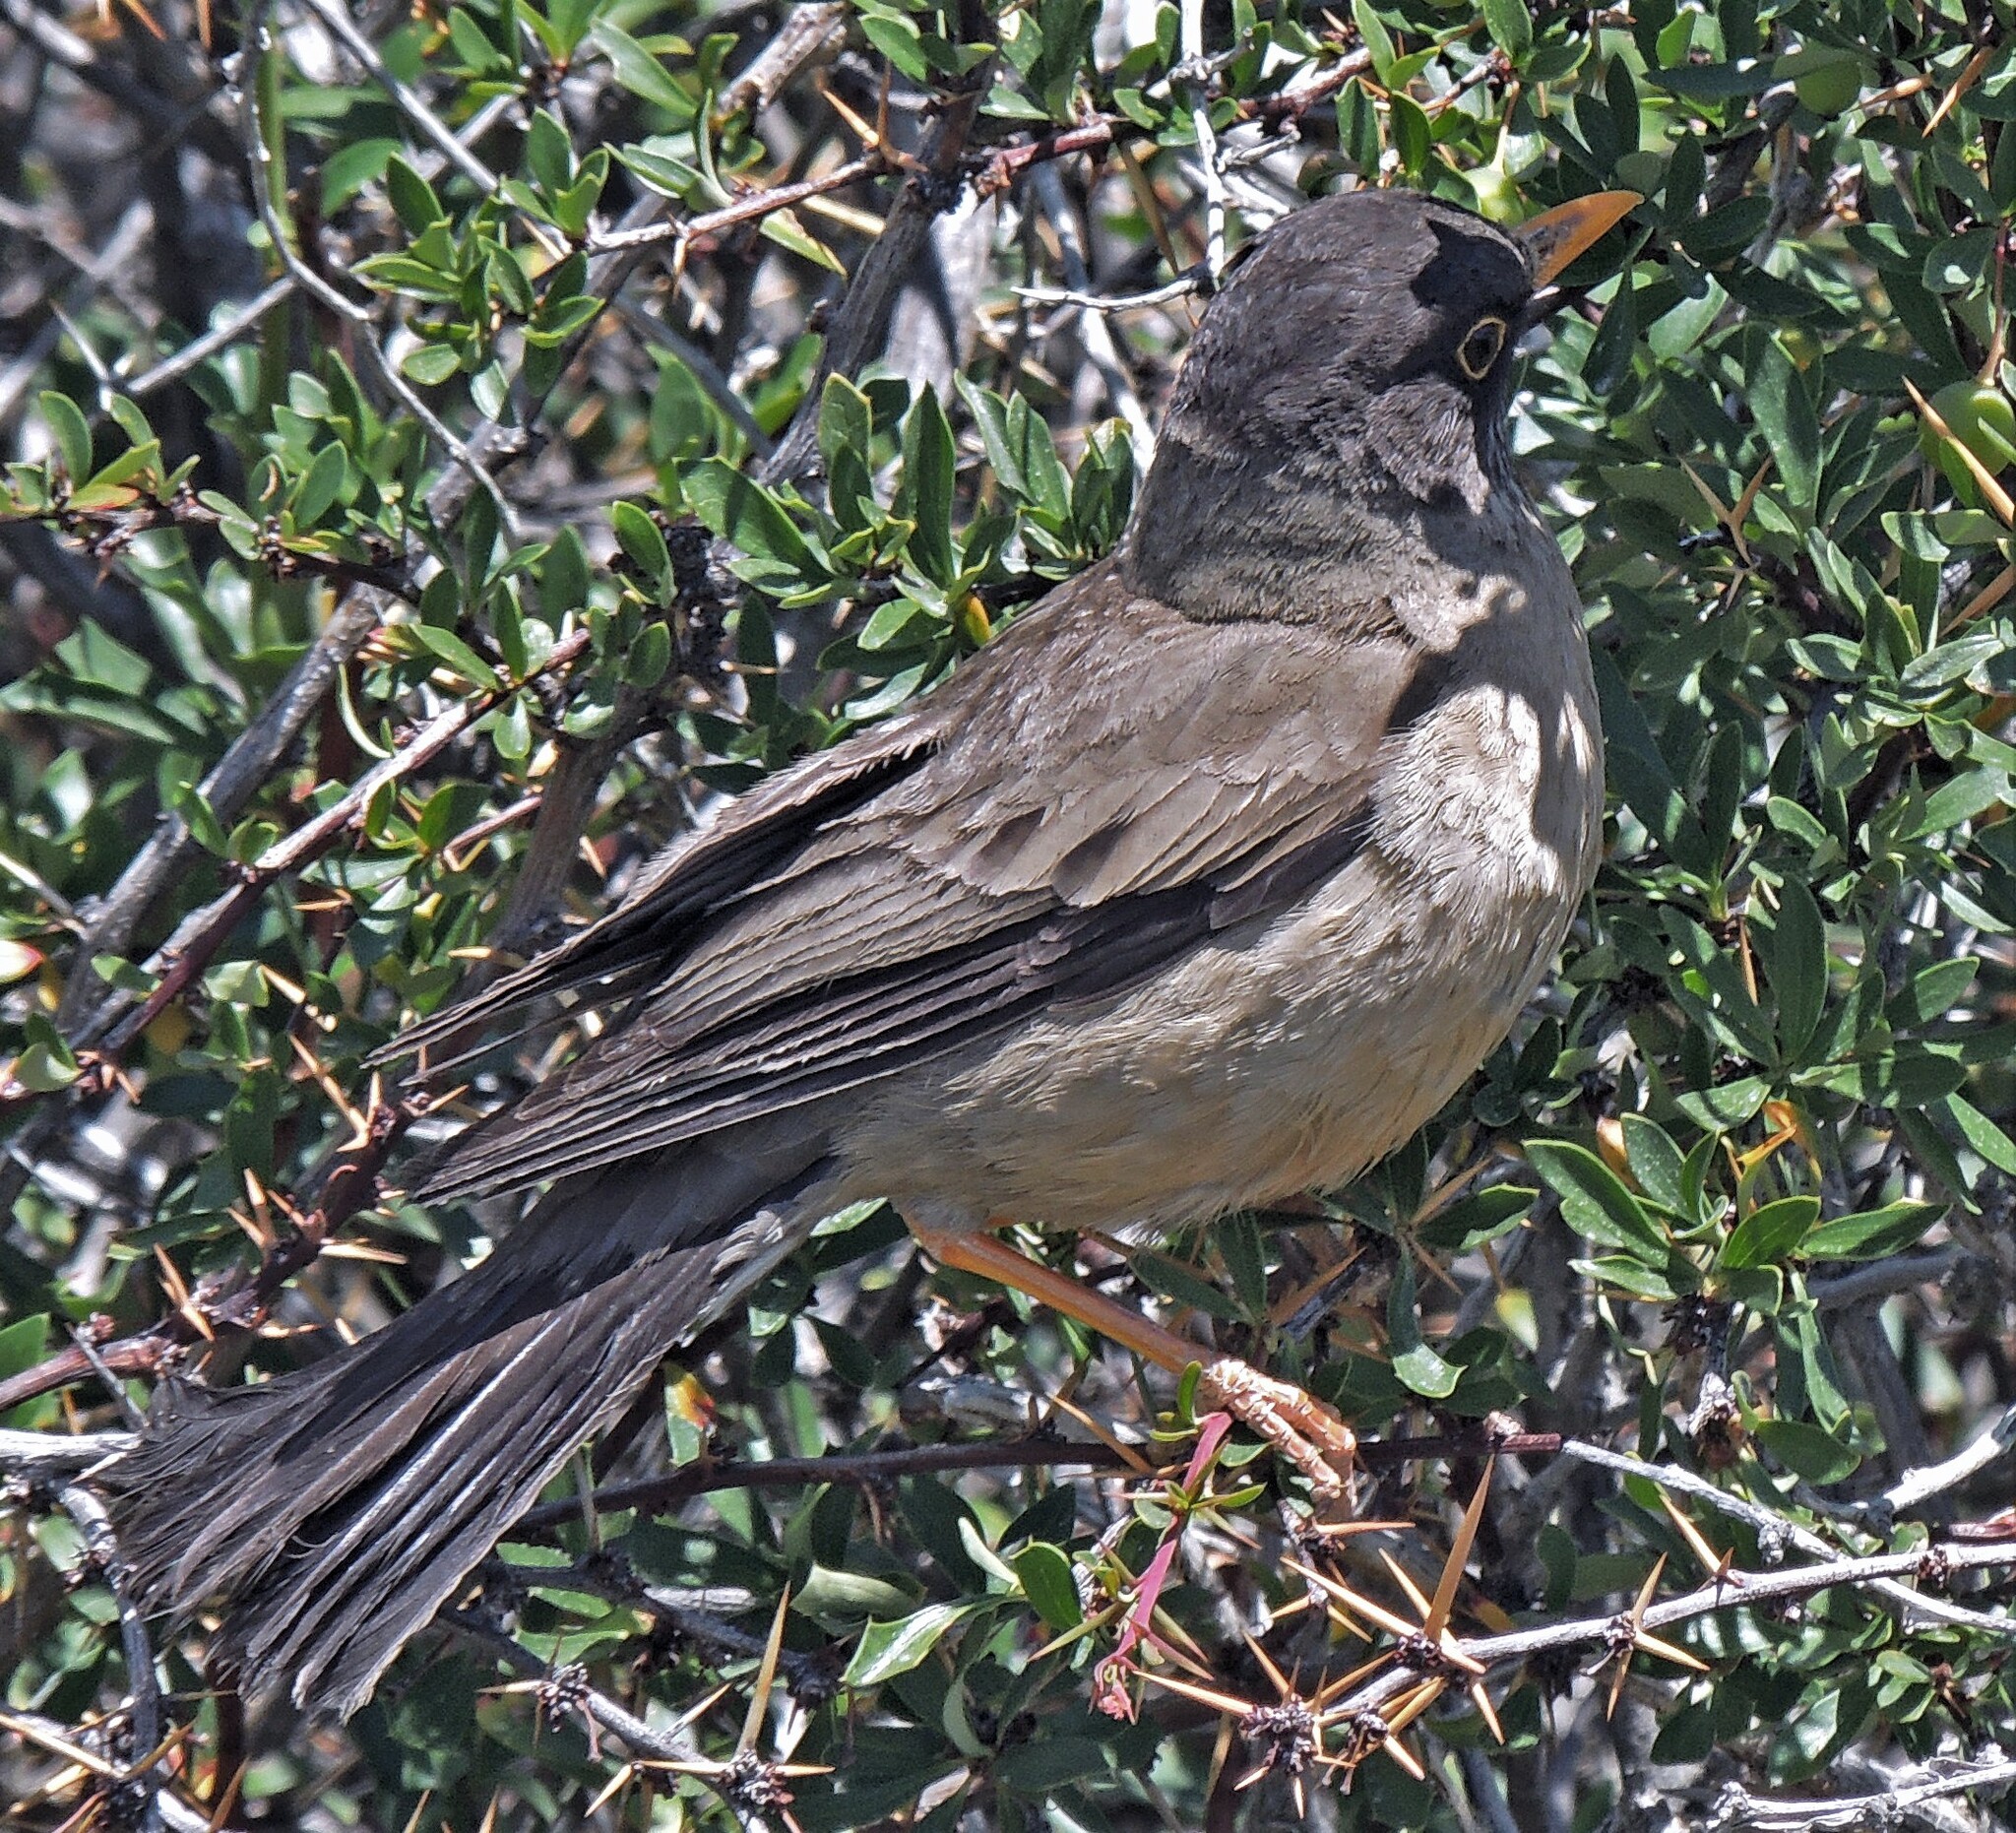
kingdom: Animalia
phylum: Chordata
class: Aves
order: Passeriformes
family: Turdidae
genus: Turdus
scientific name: Turdus falcklandii
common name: Austral thrush
